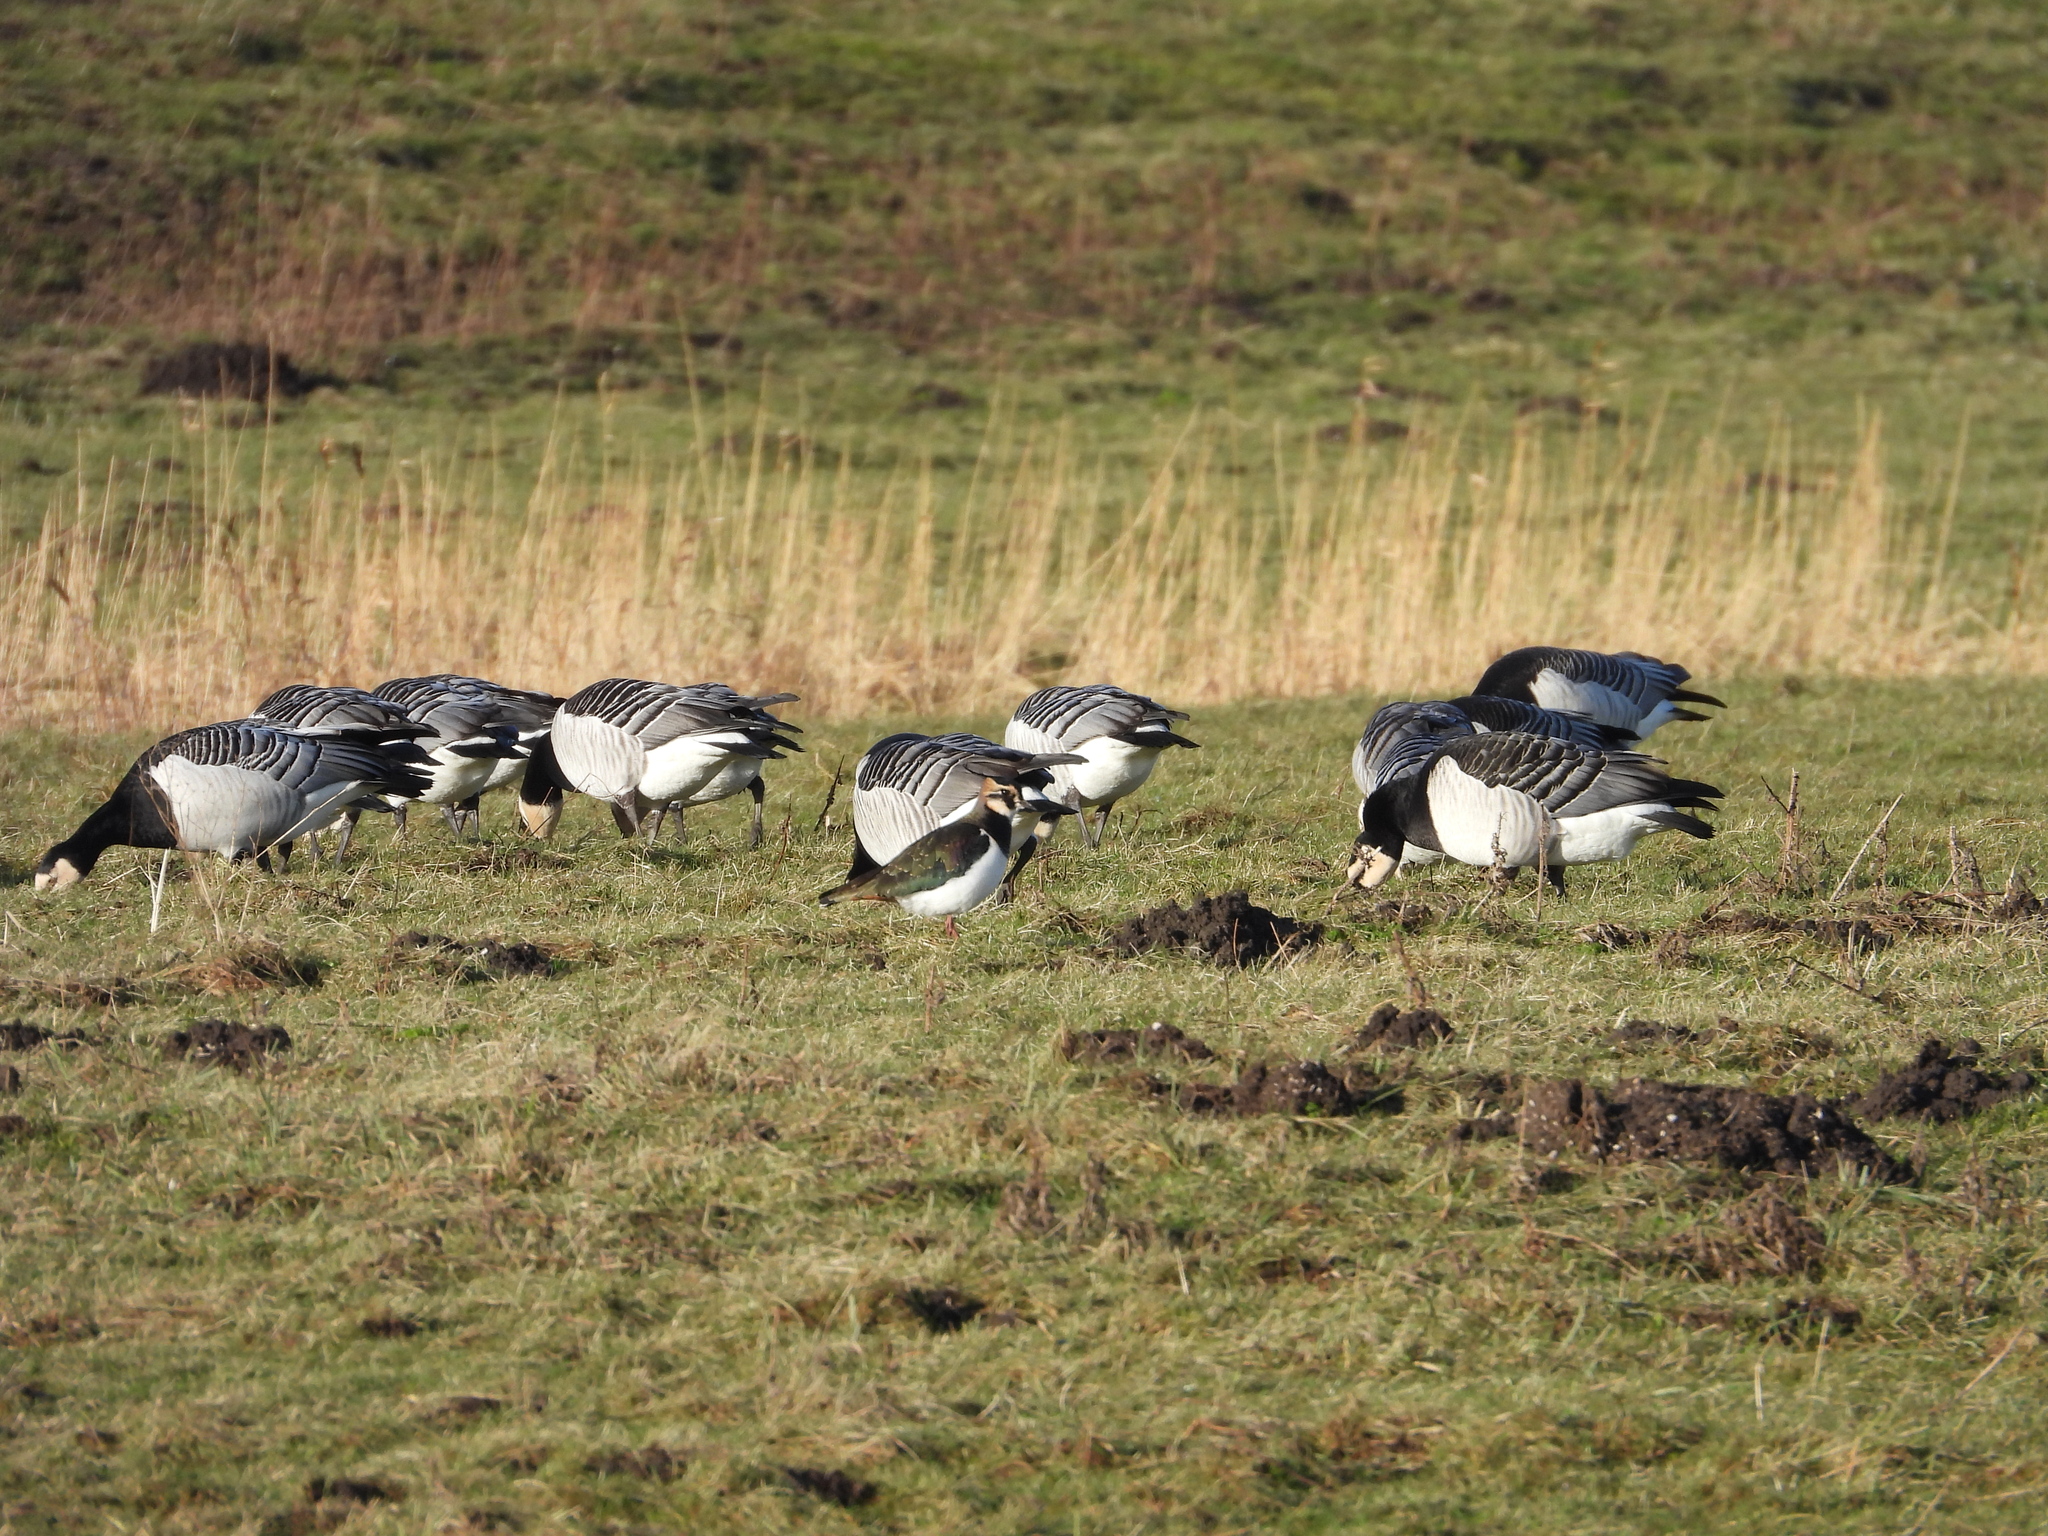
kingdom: Animalia
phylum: Chordata
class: Aves
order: Anseriformes
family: Anatidae
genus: Branta
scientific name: Branta leucopsis
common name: Barnacle goose
